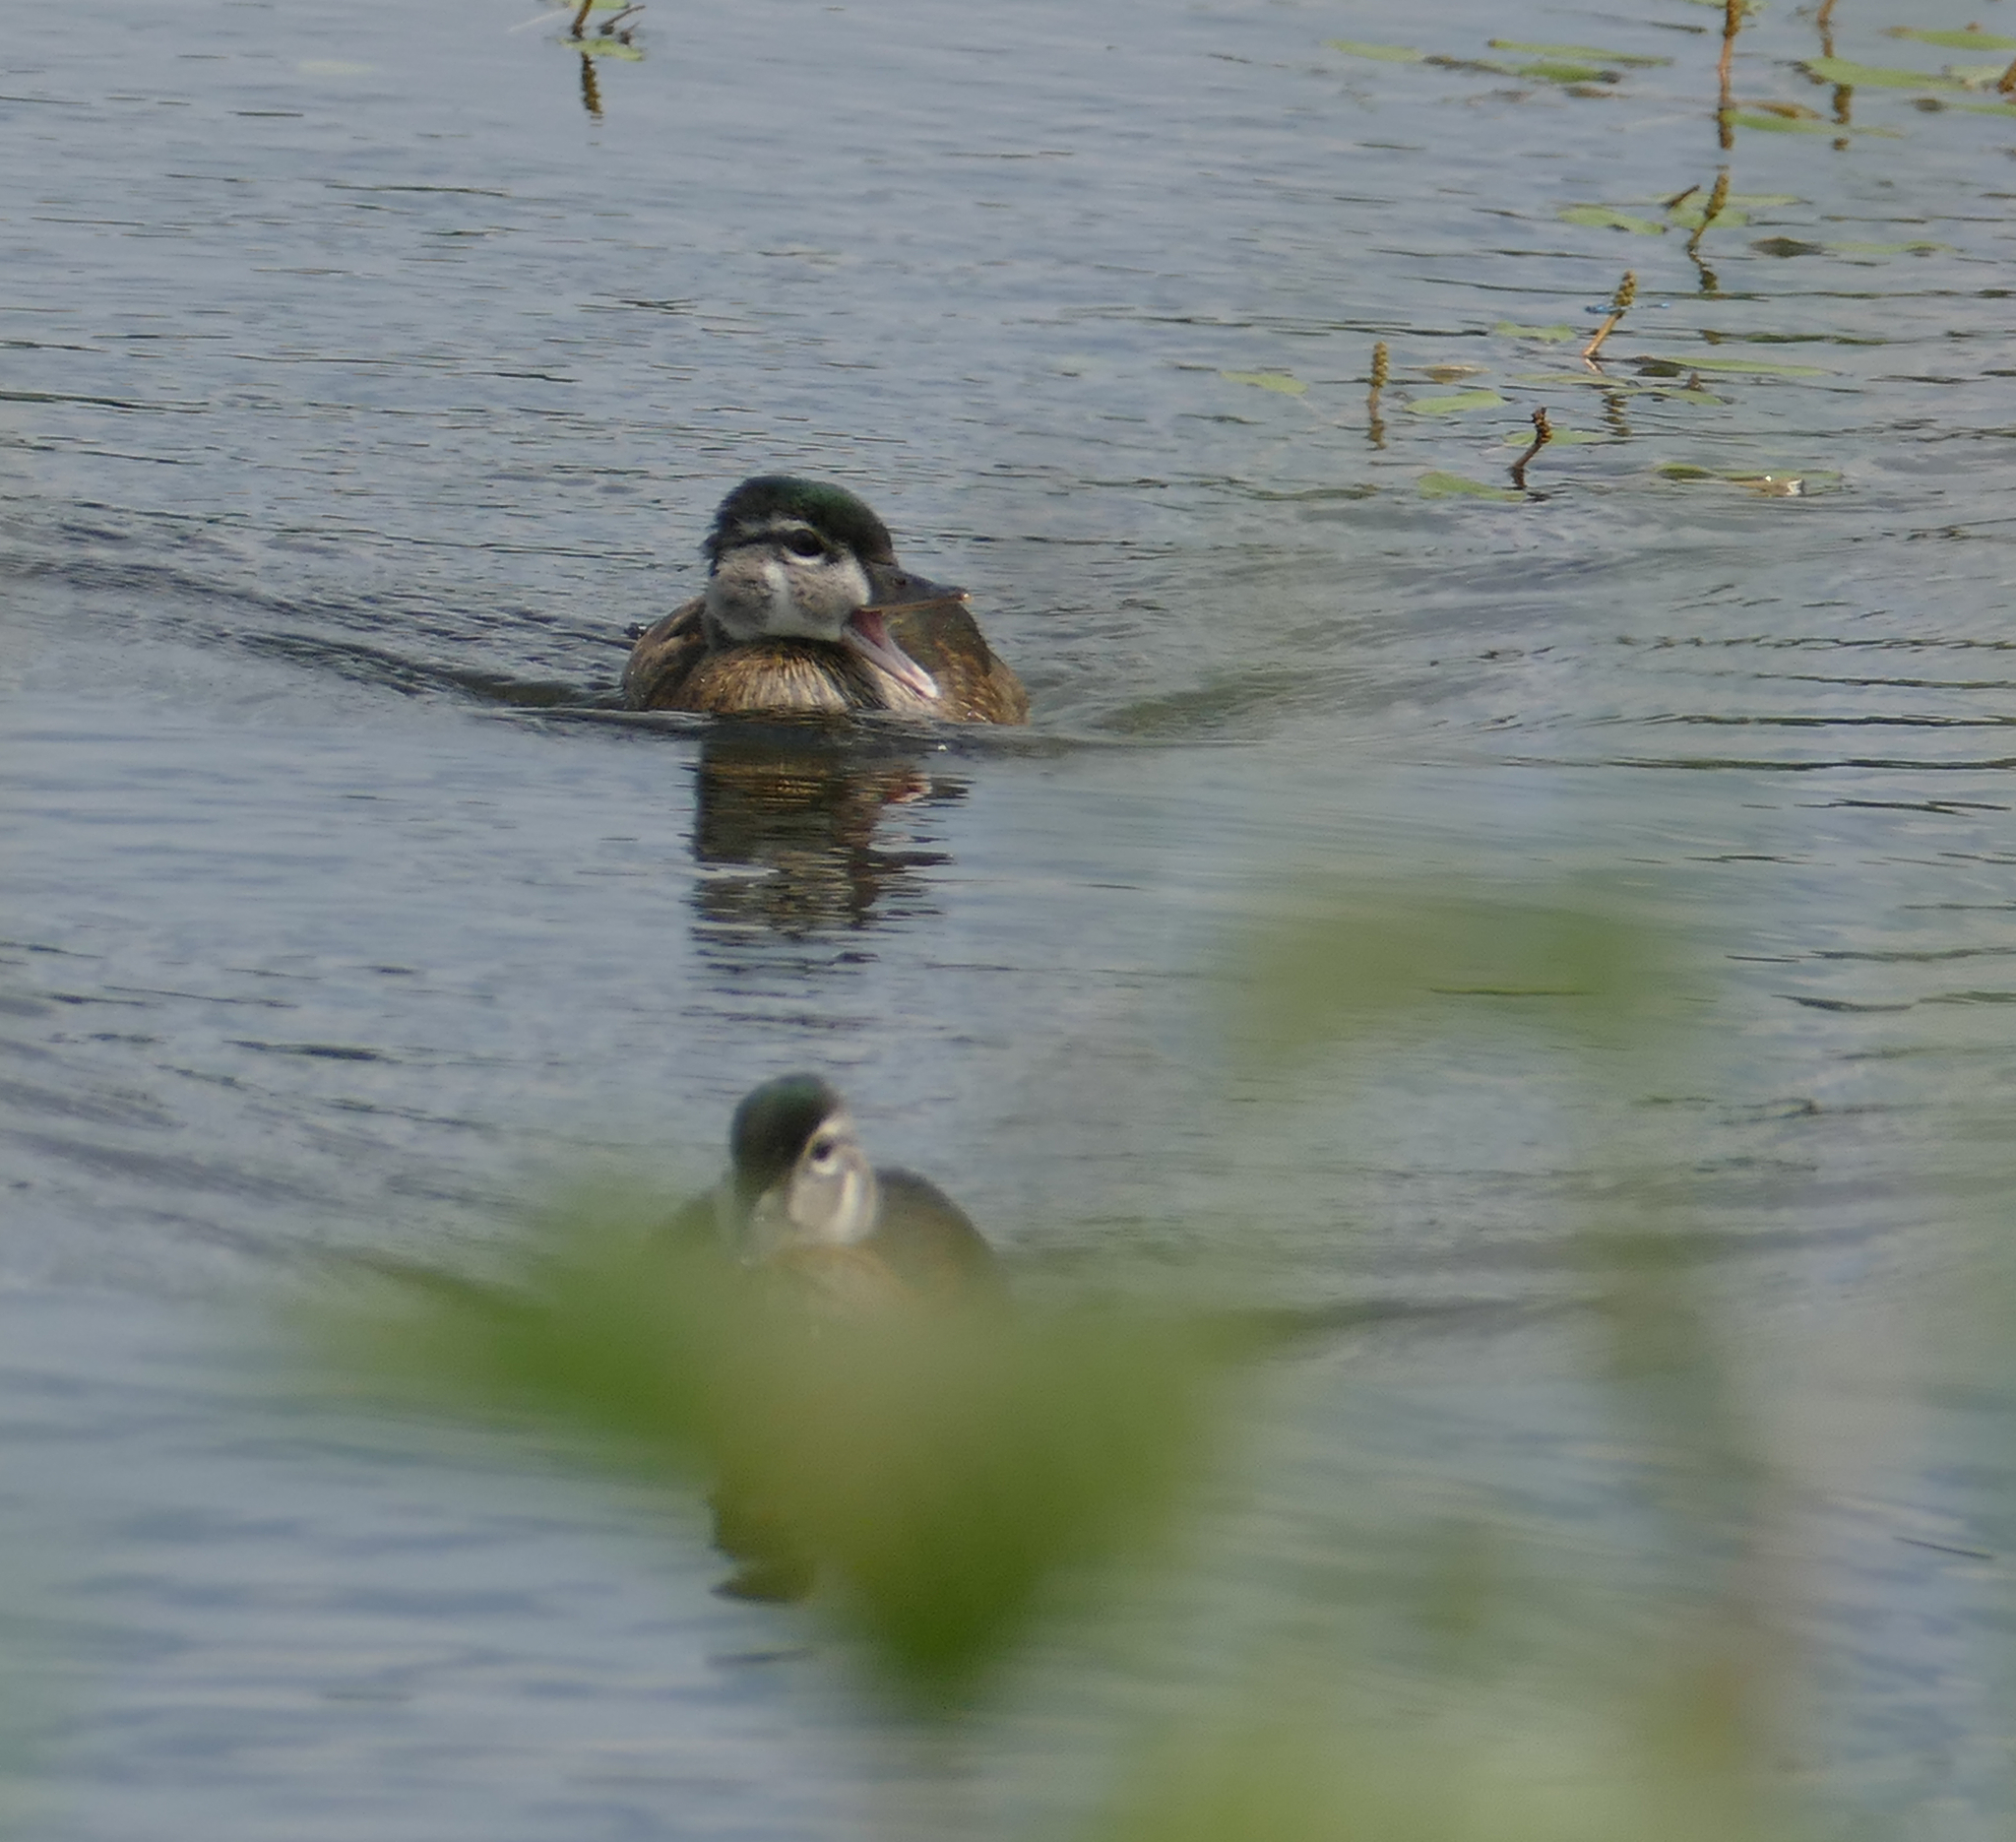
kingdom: Animalia
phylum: Chordata
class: Aves
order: Anseriformes
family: Anatidae
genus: Aix
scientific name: Aix sponsa
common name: Wood duck
